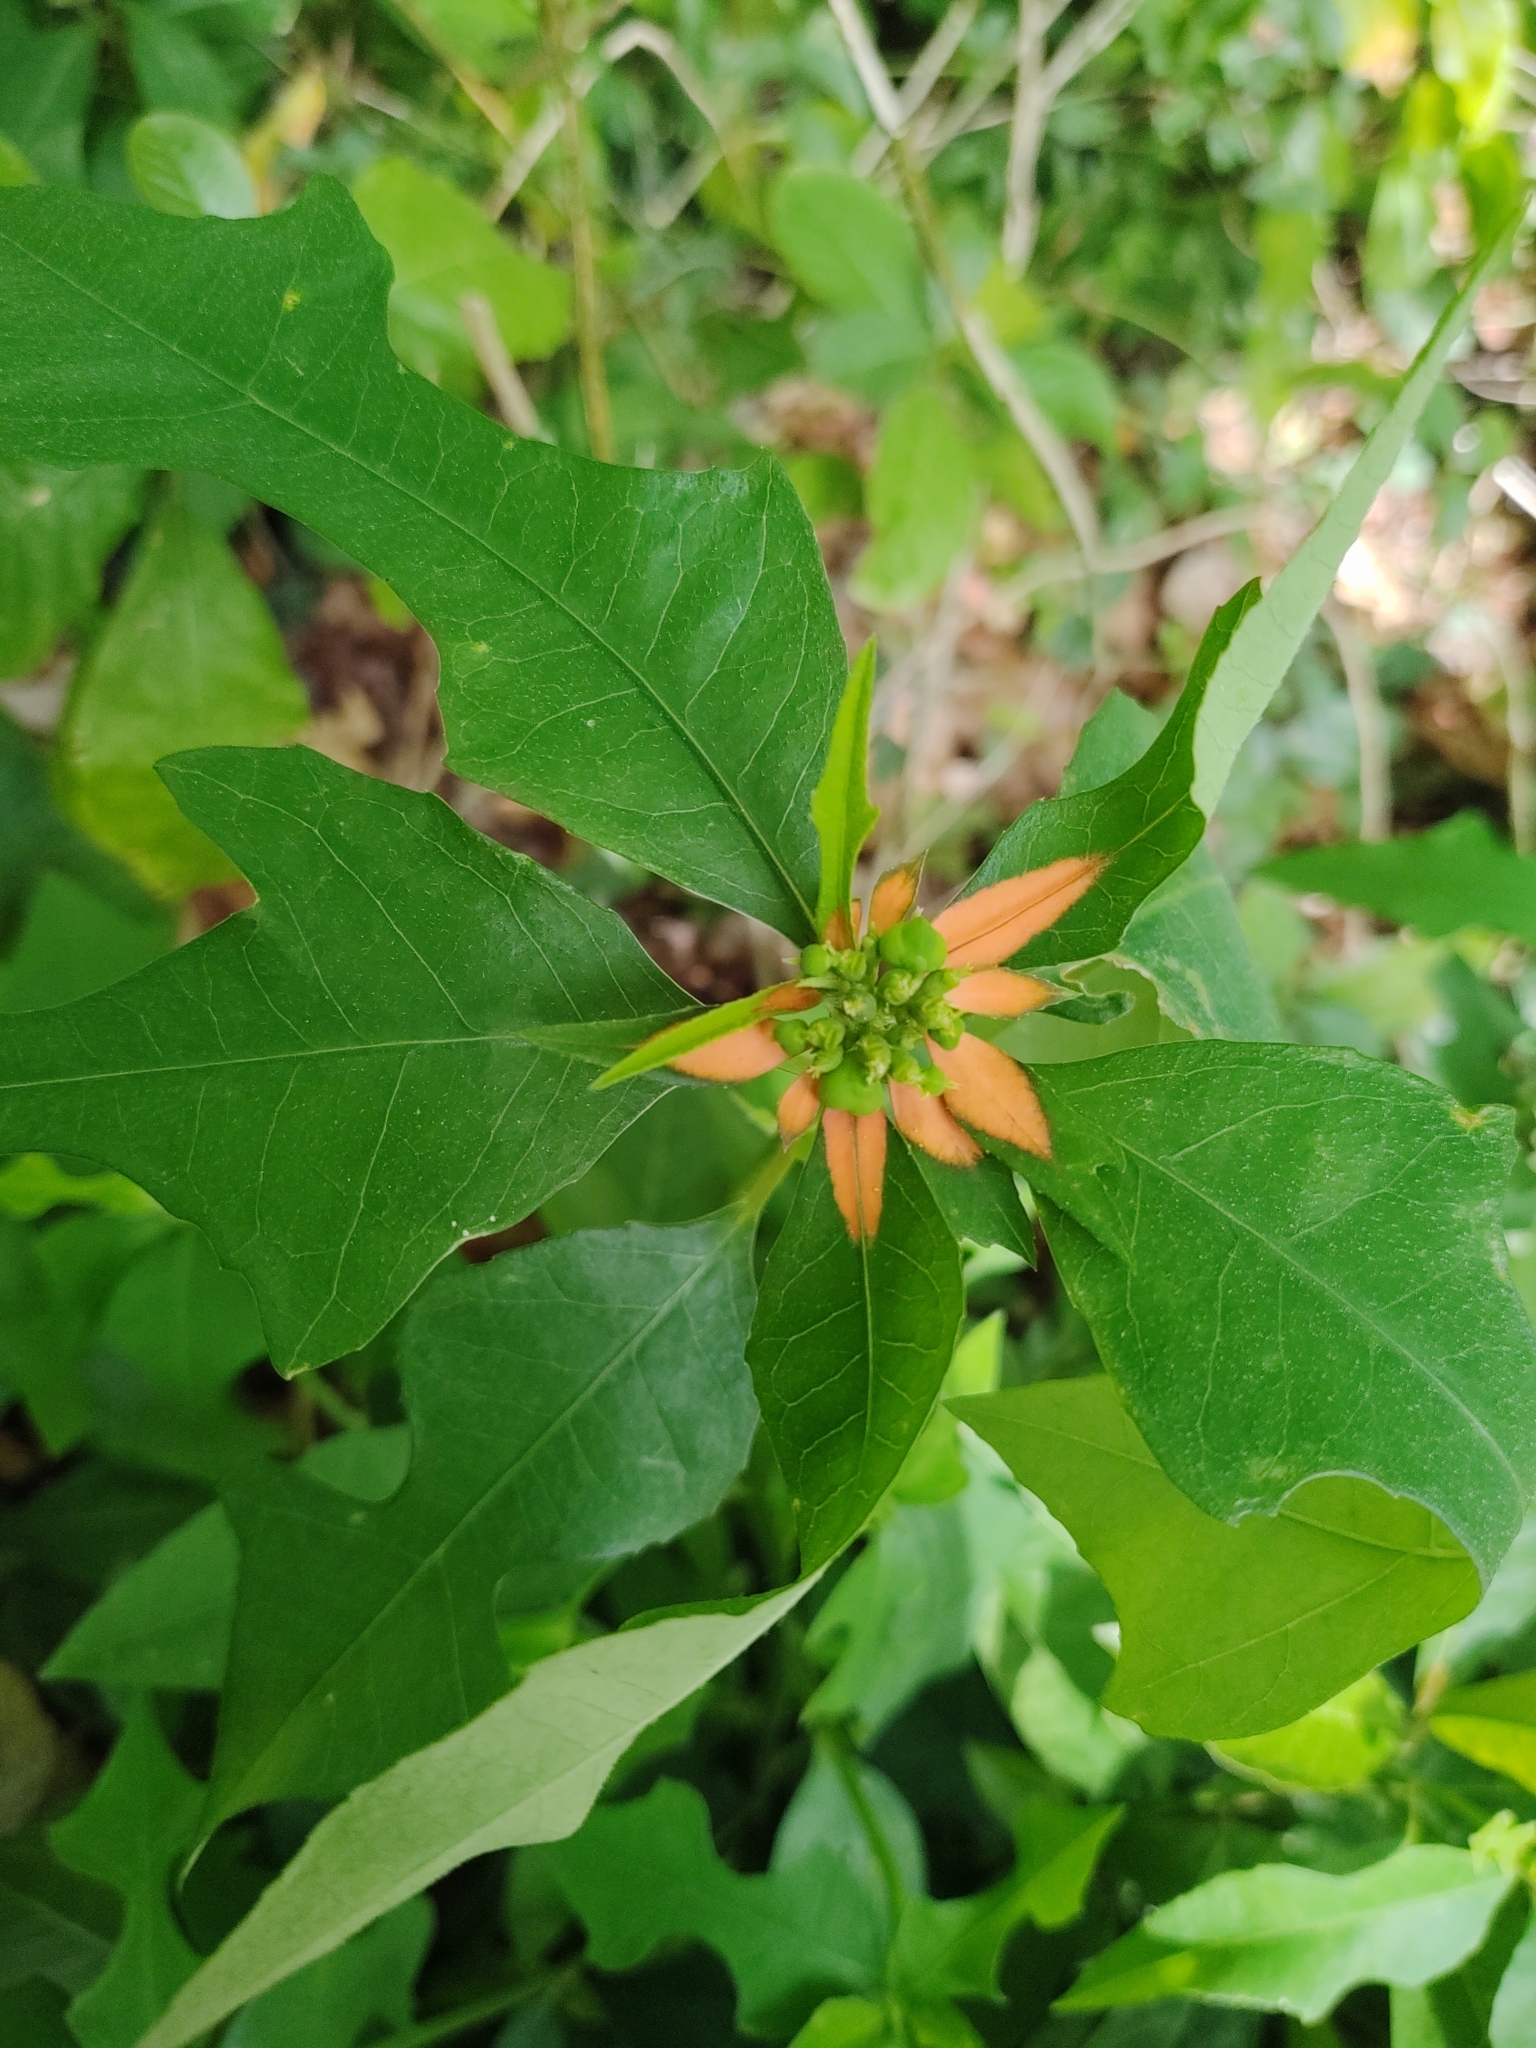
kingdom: Plantae
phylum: Tracheophyta
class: Magnoliopsida
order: Malpighiales
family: Euphorbiaceae
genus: Euphorbia
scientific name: Euphorbia heterophylla
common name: Mexican fireplant
